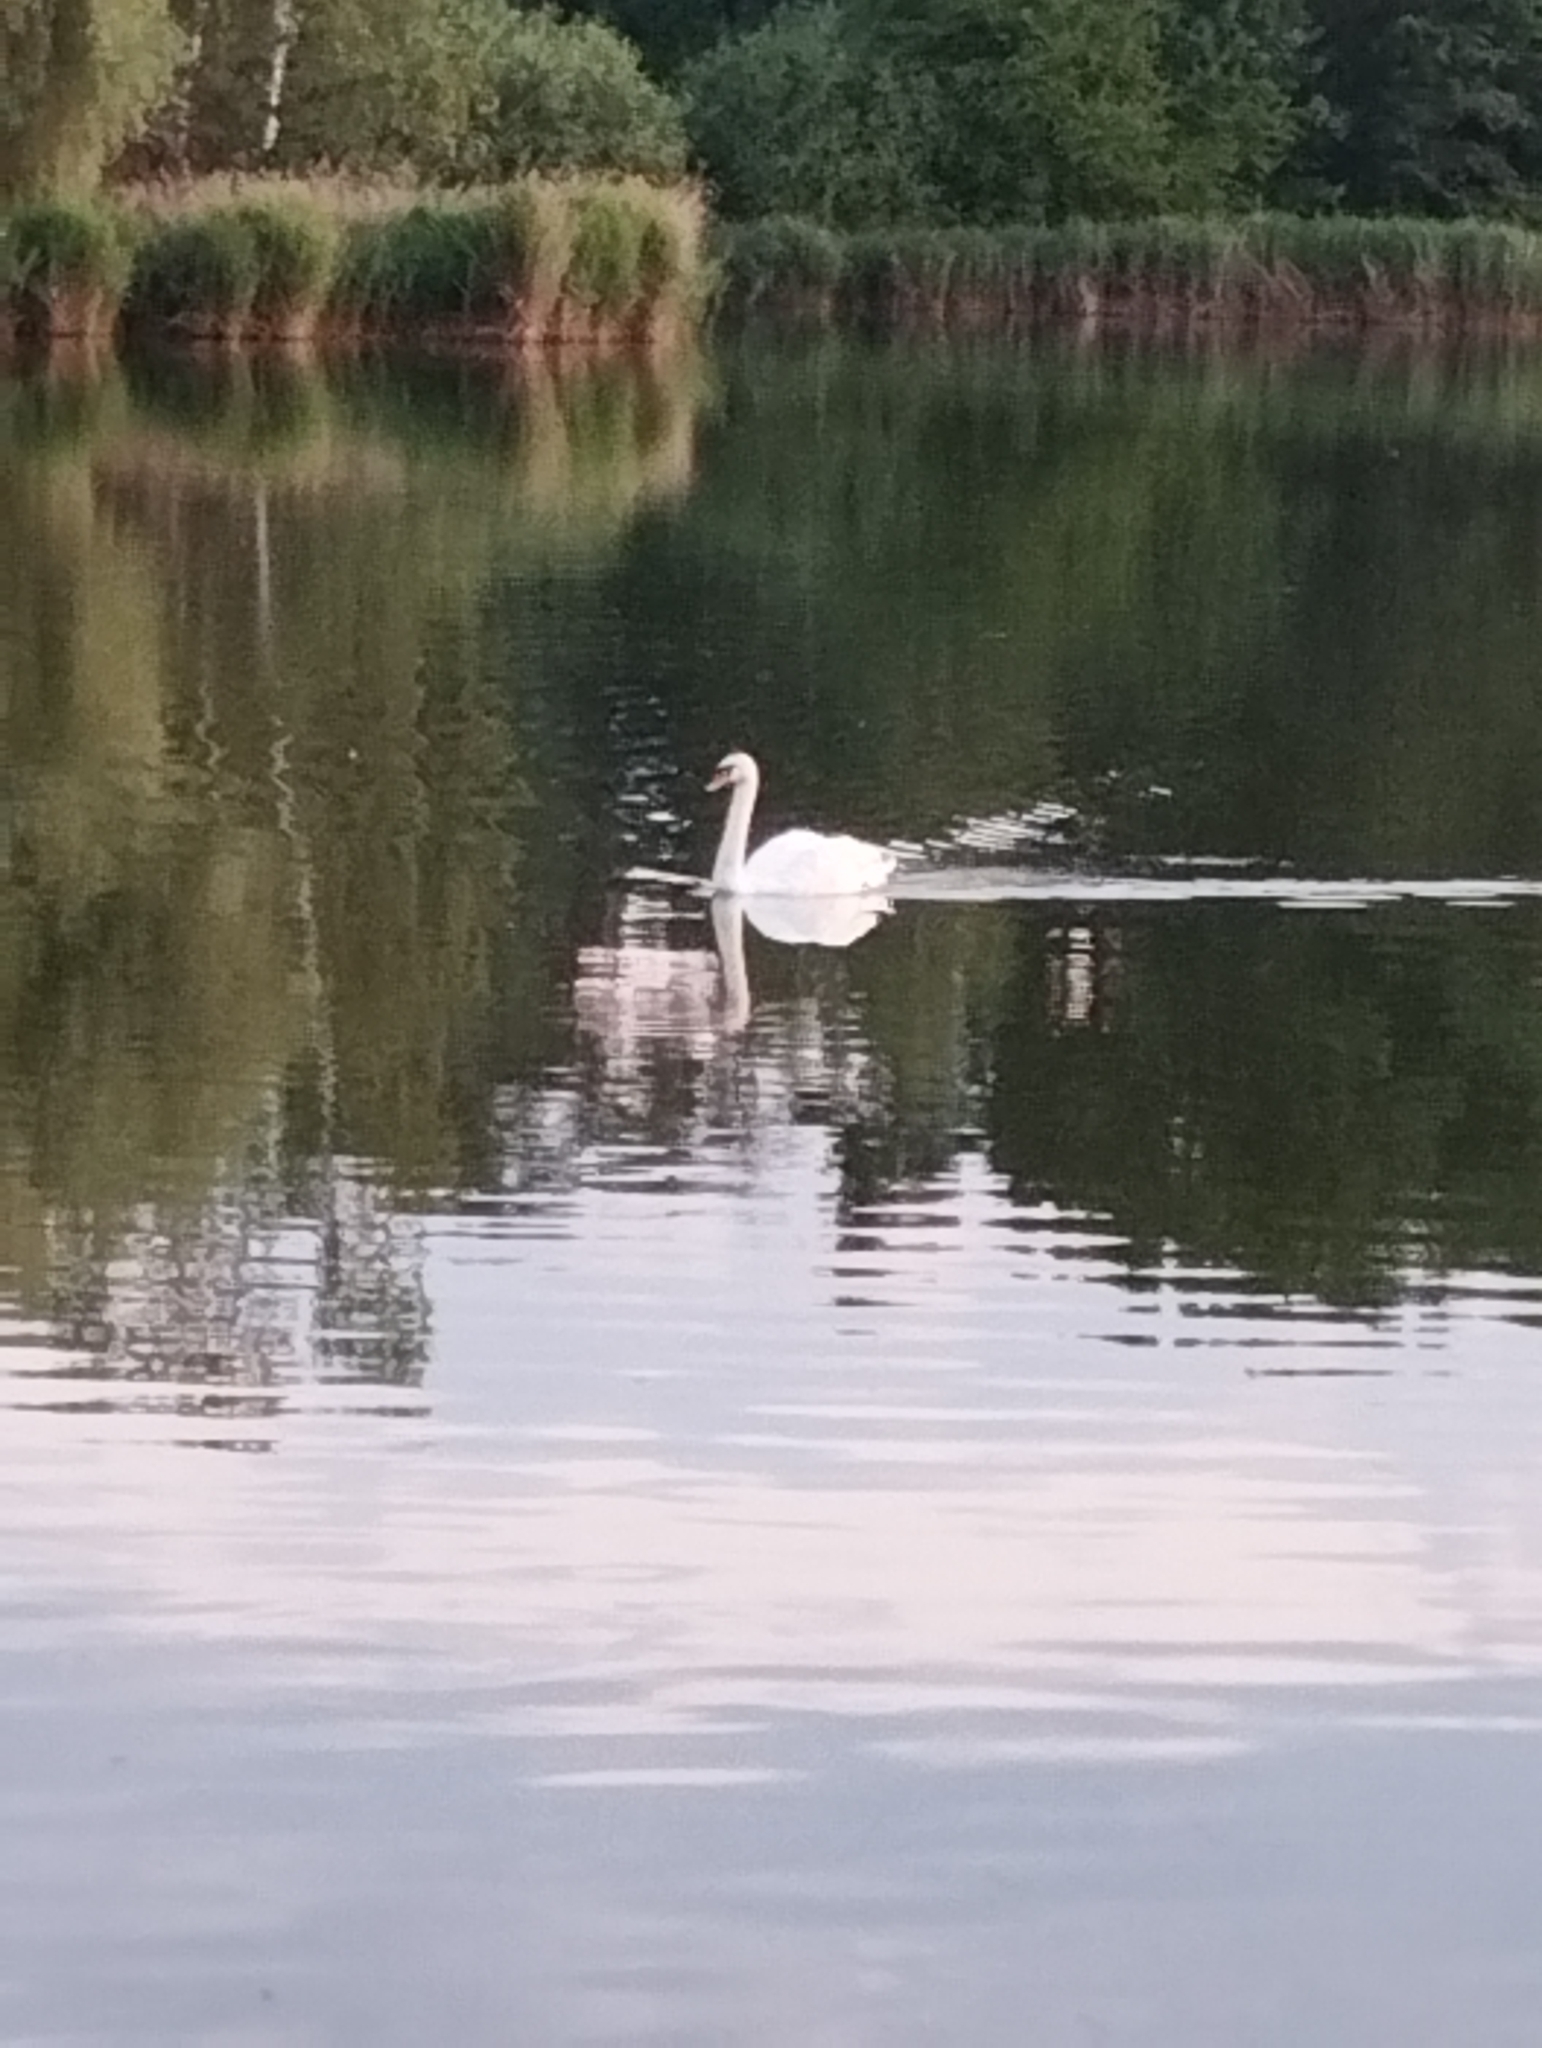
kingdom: Animalia
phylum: Chordata
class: Aves
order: Anseriformes
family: Anatidae
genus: Cygnus
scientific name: Cygnus olor
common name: Mute swan
